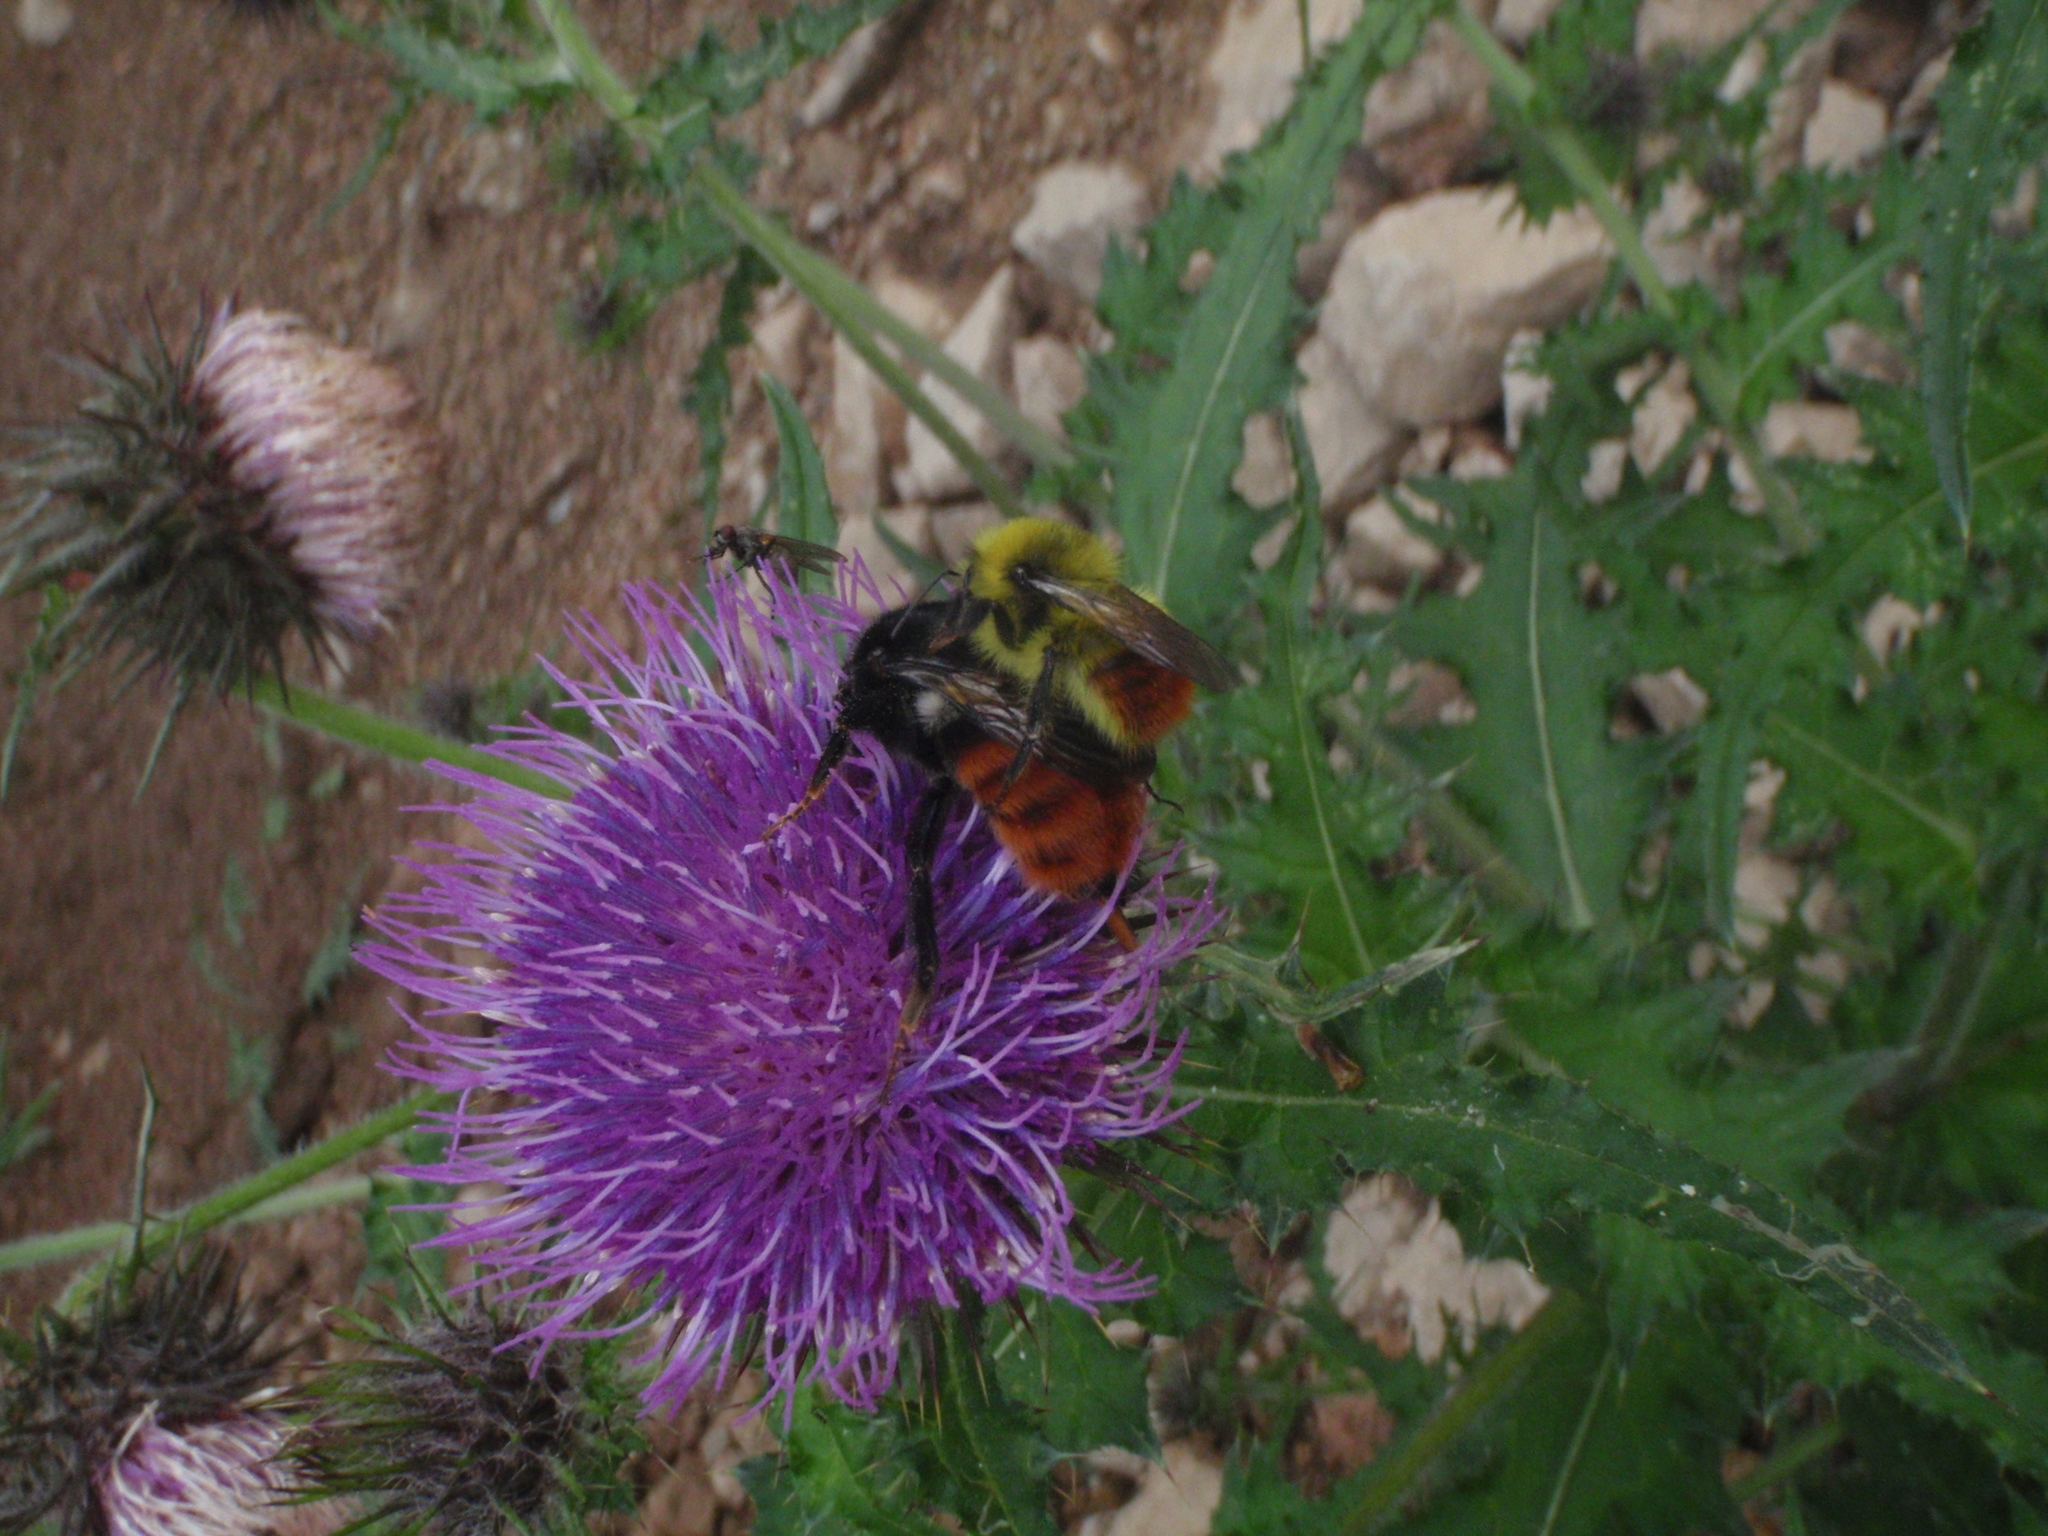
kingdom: Animalia
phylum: Arthropoda
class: Insecta
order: Hymenoptera
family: Apidae
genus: Bombus
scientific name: Bombus pyrosoma
